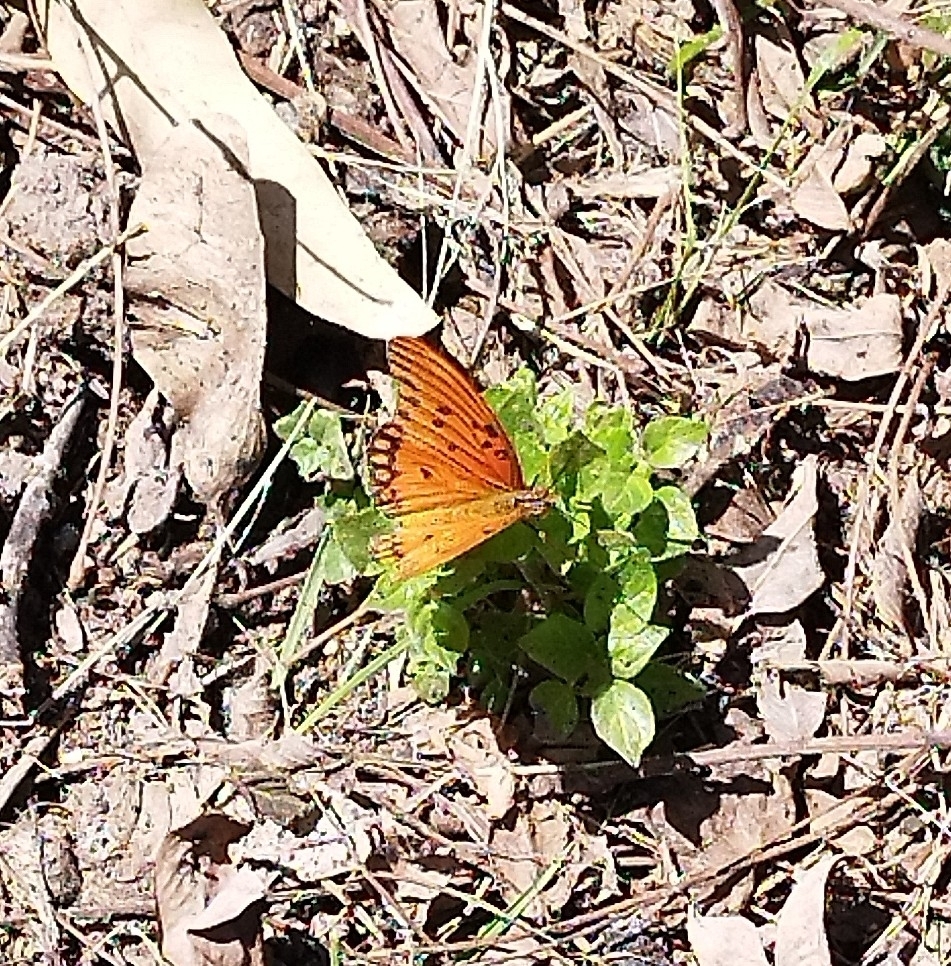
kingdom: Animalia
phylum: Arthropoda
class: Insecta
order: Lepidoptera
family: Nymphalidae
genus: Dione
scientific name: Dione vanillae
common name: Gulf fritillary
